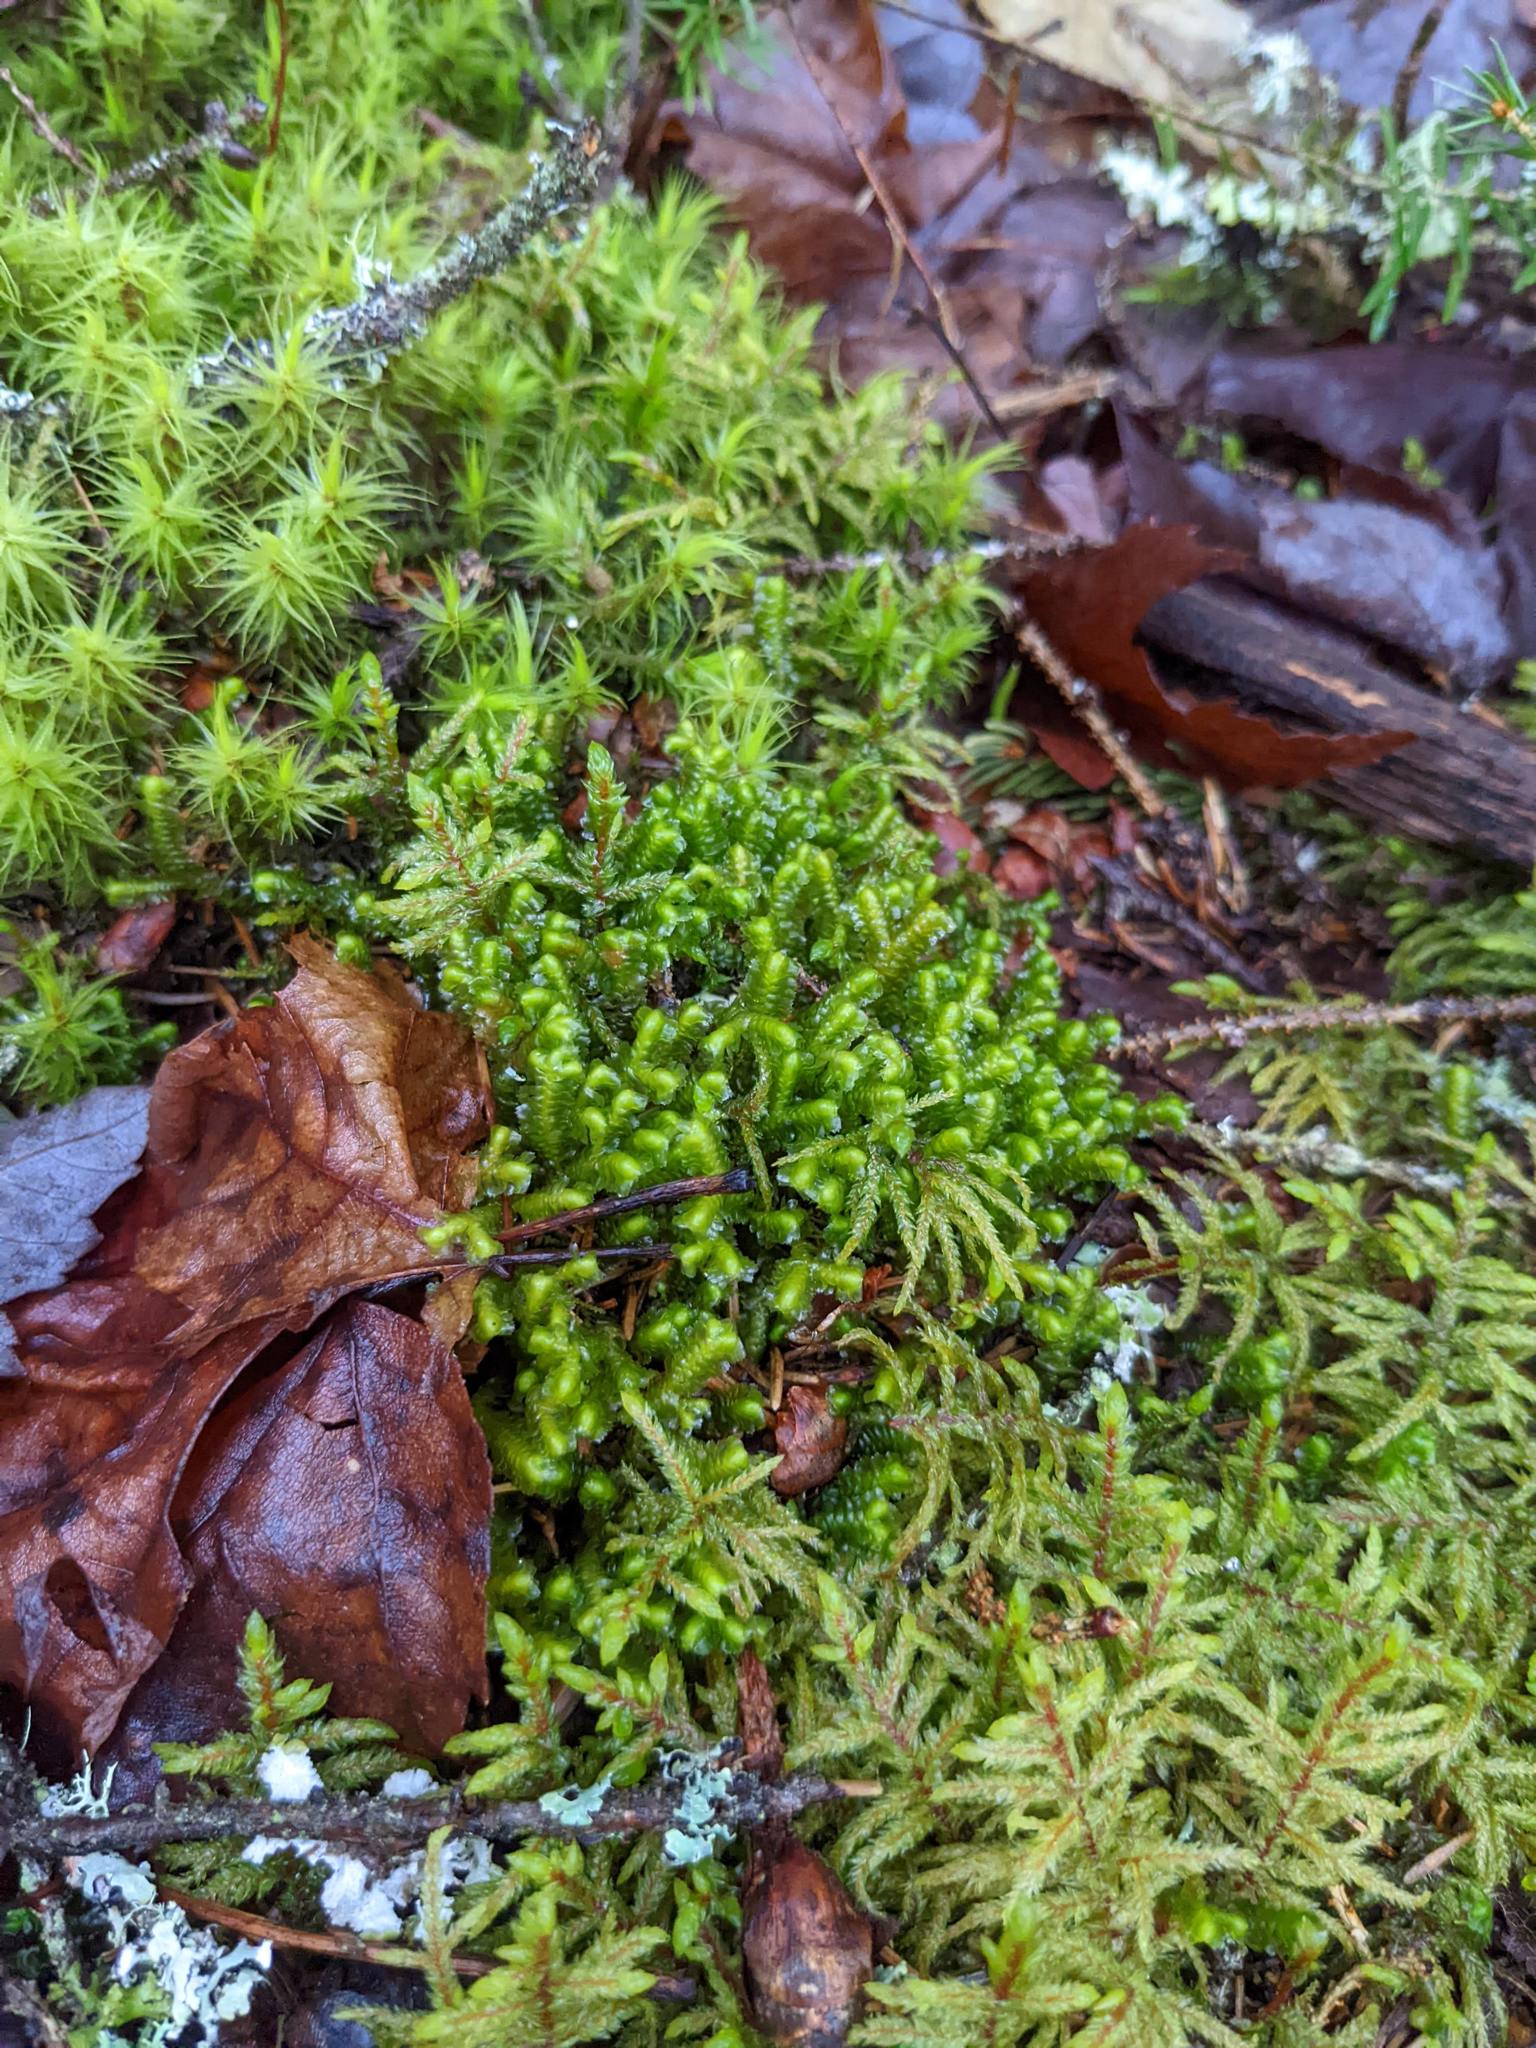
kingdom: Plantae
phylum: Marchantiophyta
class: Jungermanniopsida
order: Jungermanniales
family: Lepidoziaceae
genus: Bazzania
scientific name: Bazzania trilobata
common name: Three-lobed whipwort
